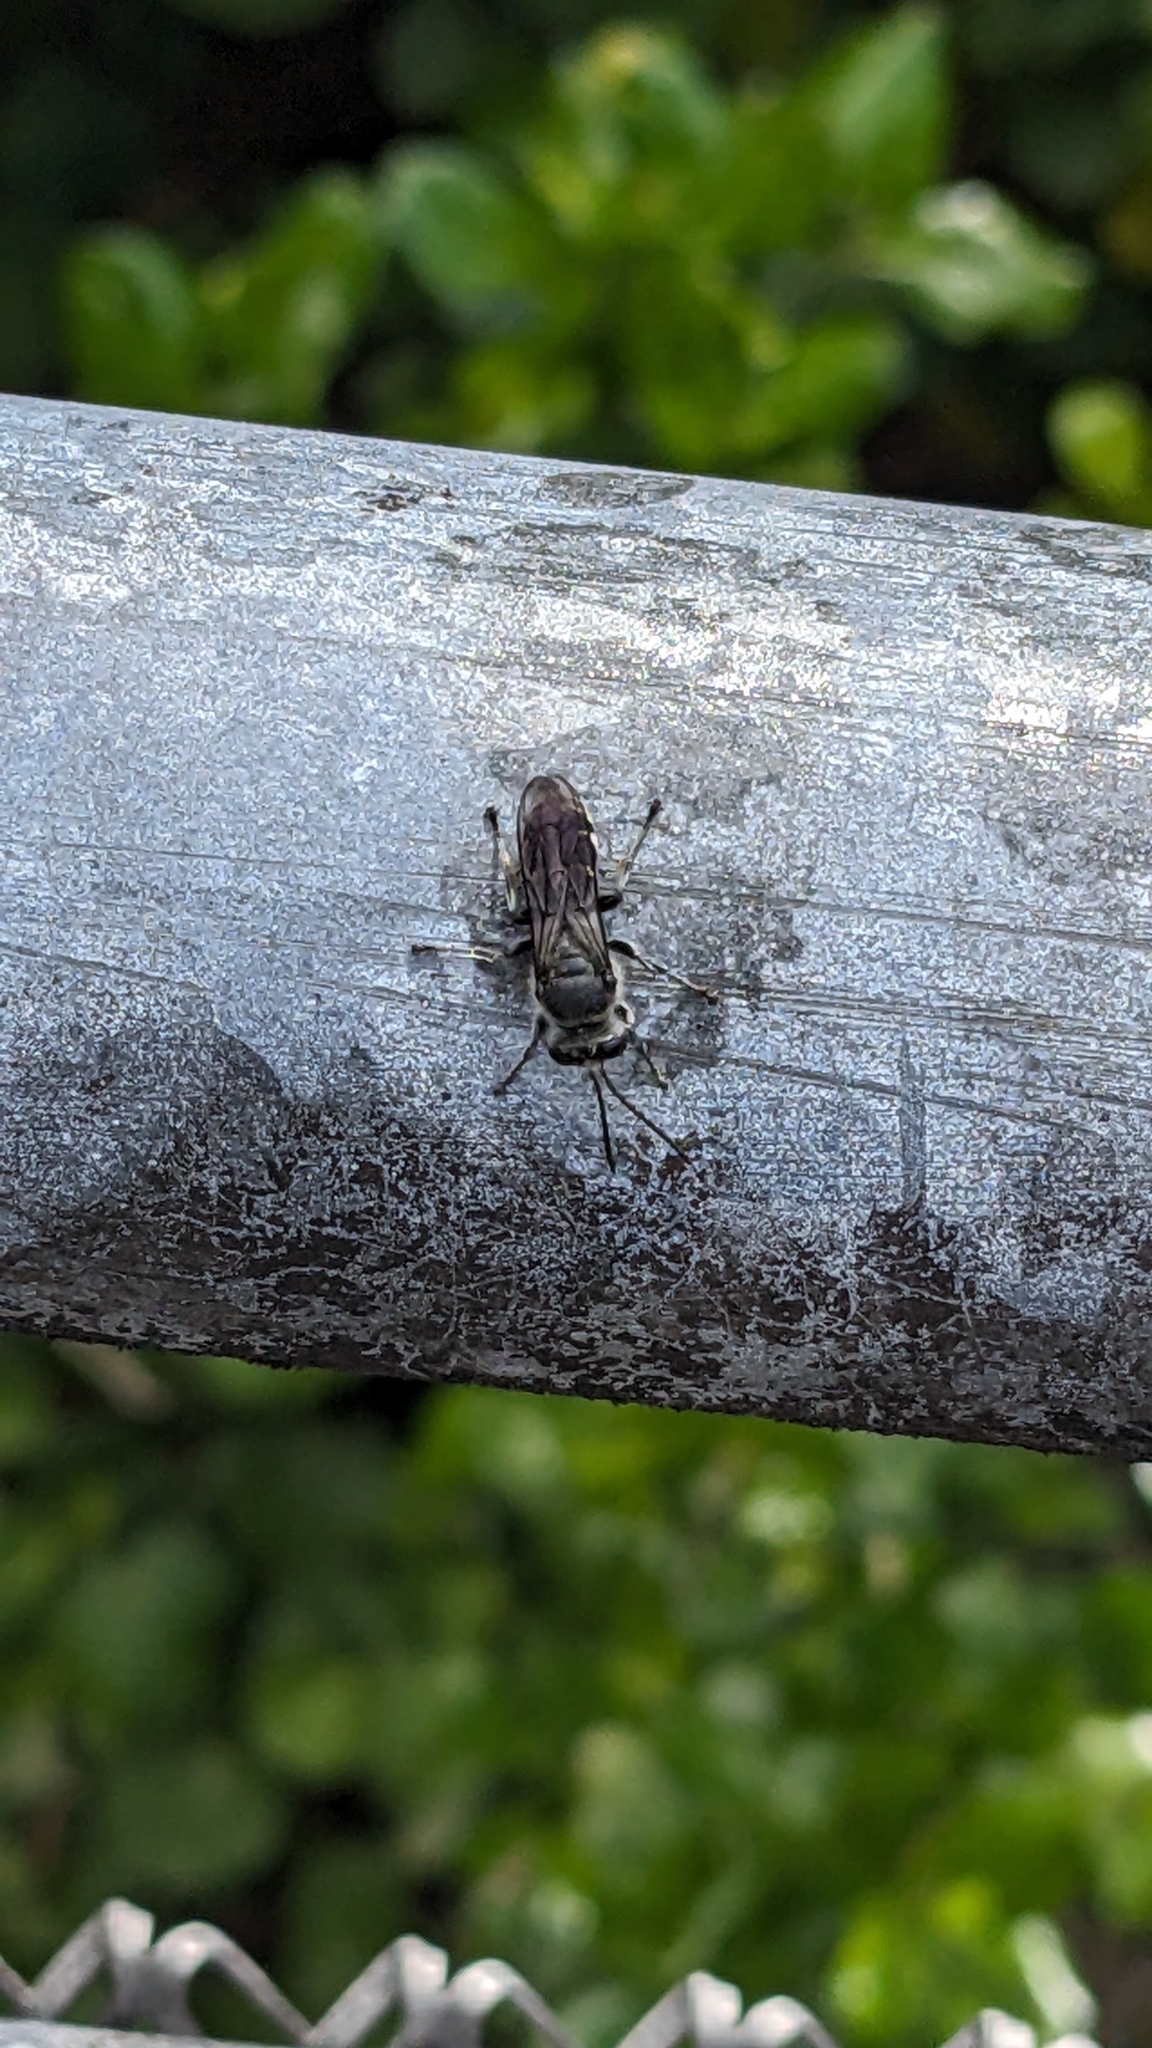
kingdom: Animalia
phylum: Arthropoda
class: Insecta
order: Hymenoptera
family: Crabronidae
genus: Pison
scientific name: Pison spinolae
